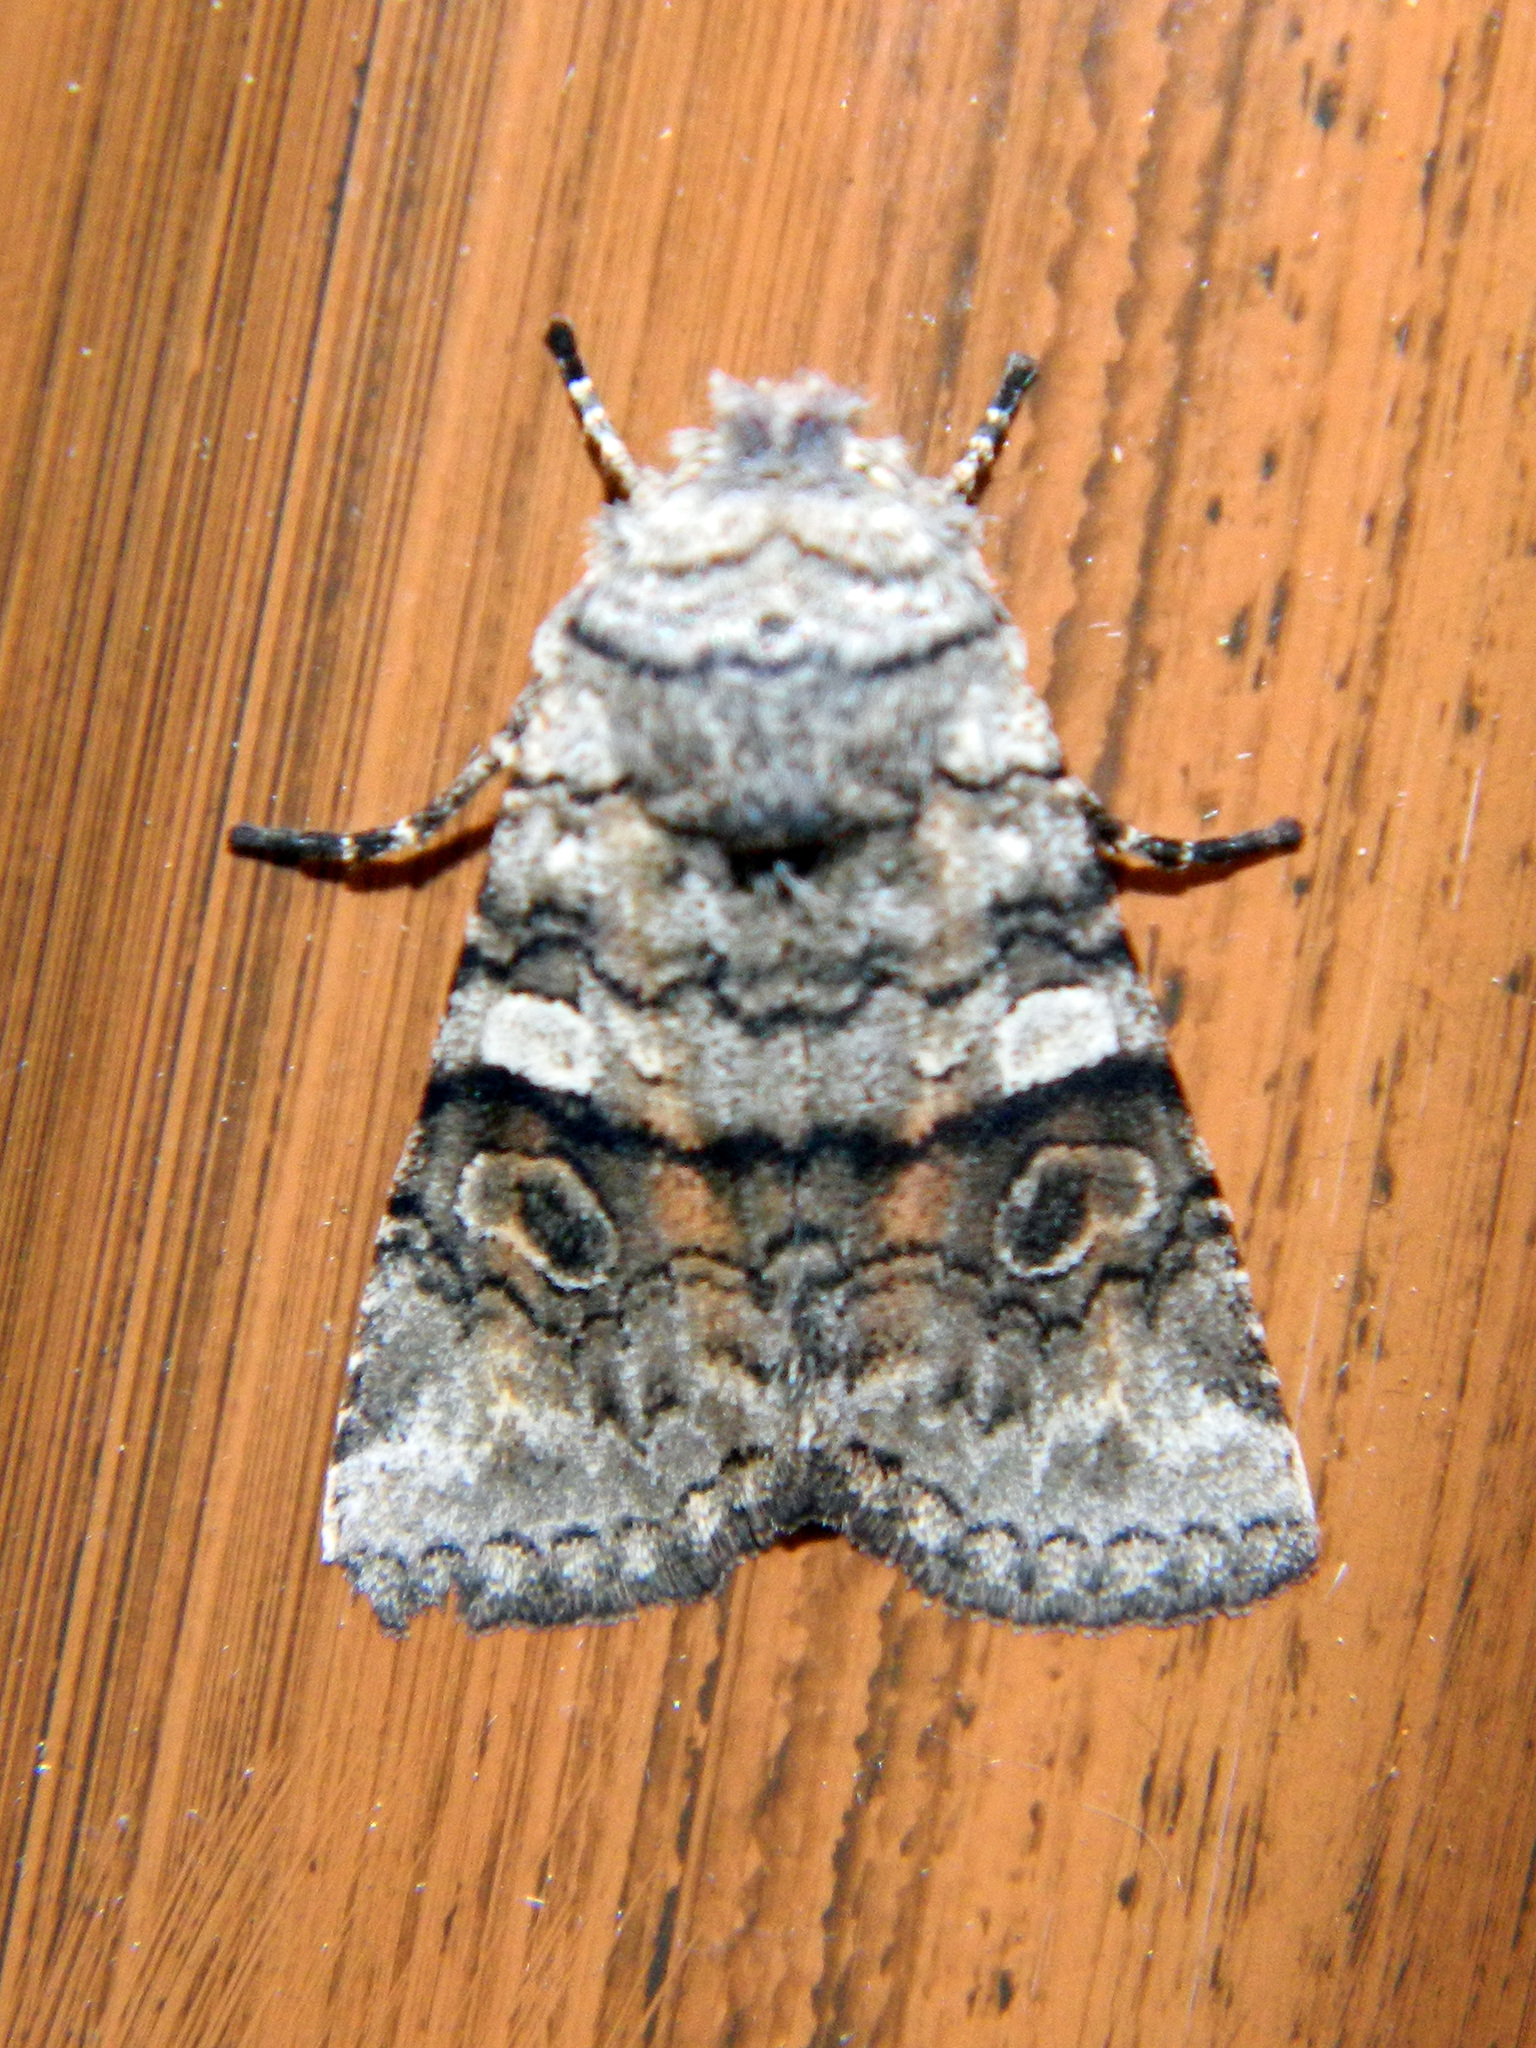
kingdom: Animalia
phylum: Arthropoda
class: Insecta
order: Lepidoptera
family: Noctuidae
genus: Litholomia
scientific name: Litholomia napaea
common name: False pinion moth
